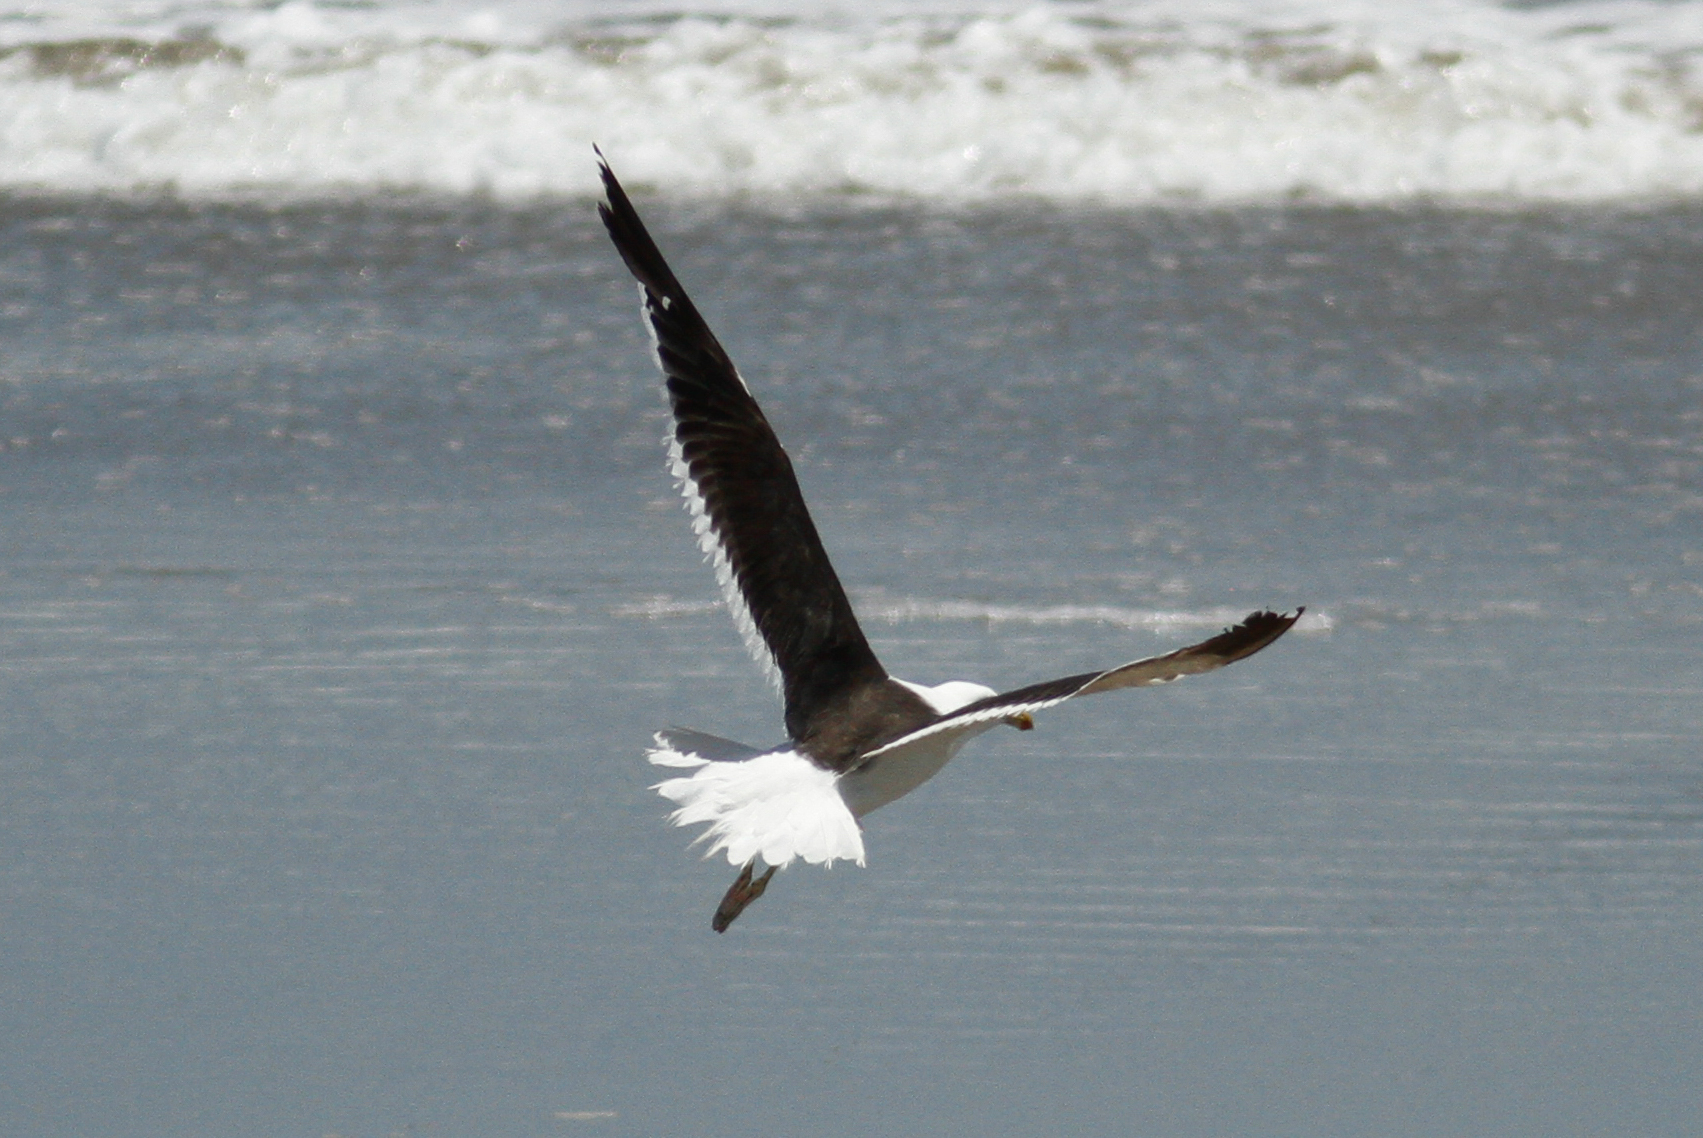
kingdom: Animalia
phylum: Chordata
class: Aves
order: Charadriiformes
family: Laridae
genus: Larus
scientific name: Larus dominicanus
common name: Kelp gull
